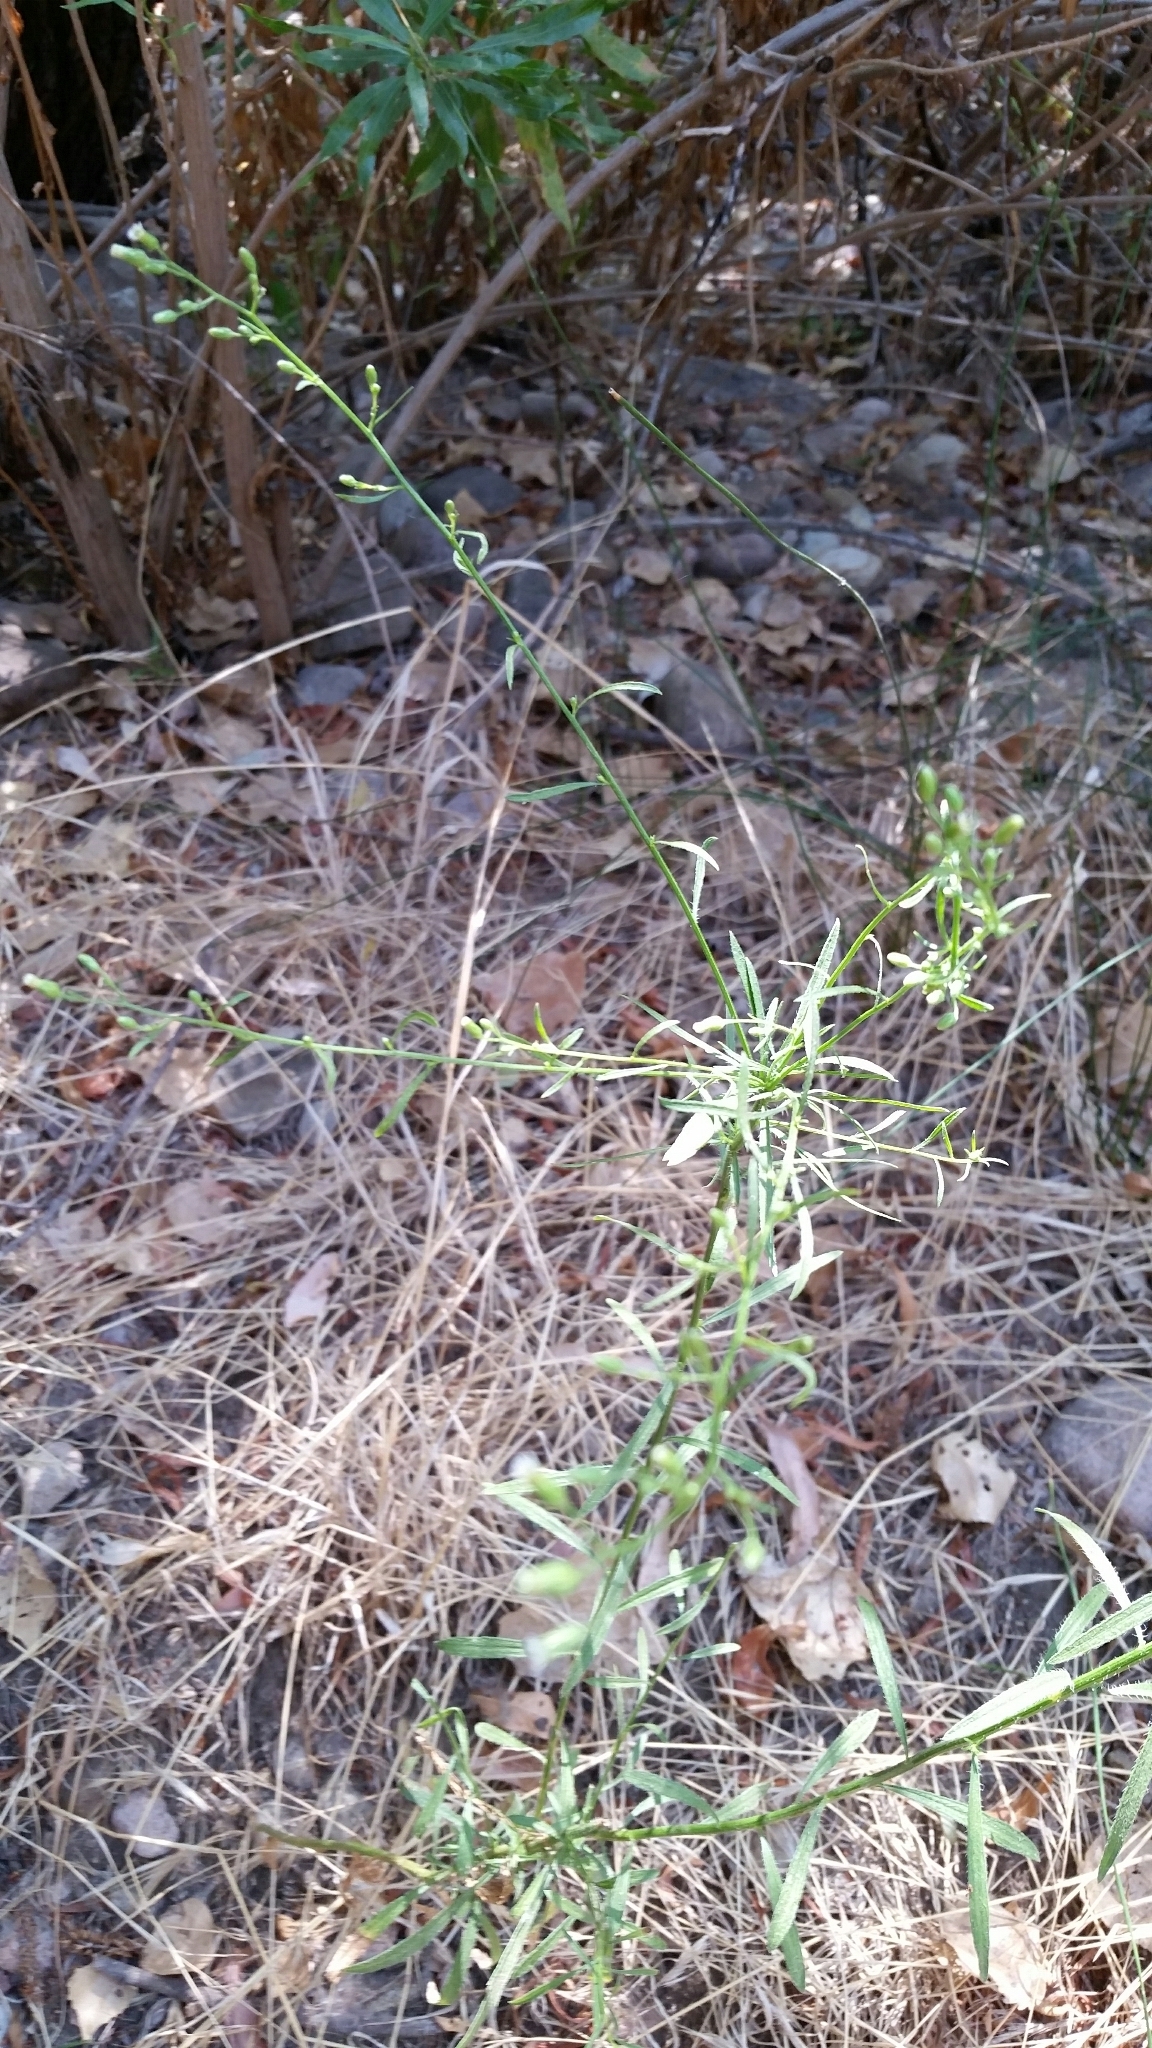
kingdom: Plantae
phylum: Tracheophyta
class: Magnoliopsida
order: Asterales
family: Asteraceae
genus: Erigeron
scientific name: Erigeron canadensis
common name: Canadian fleabane
